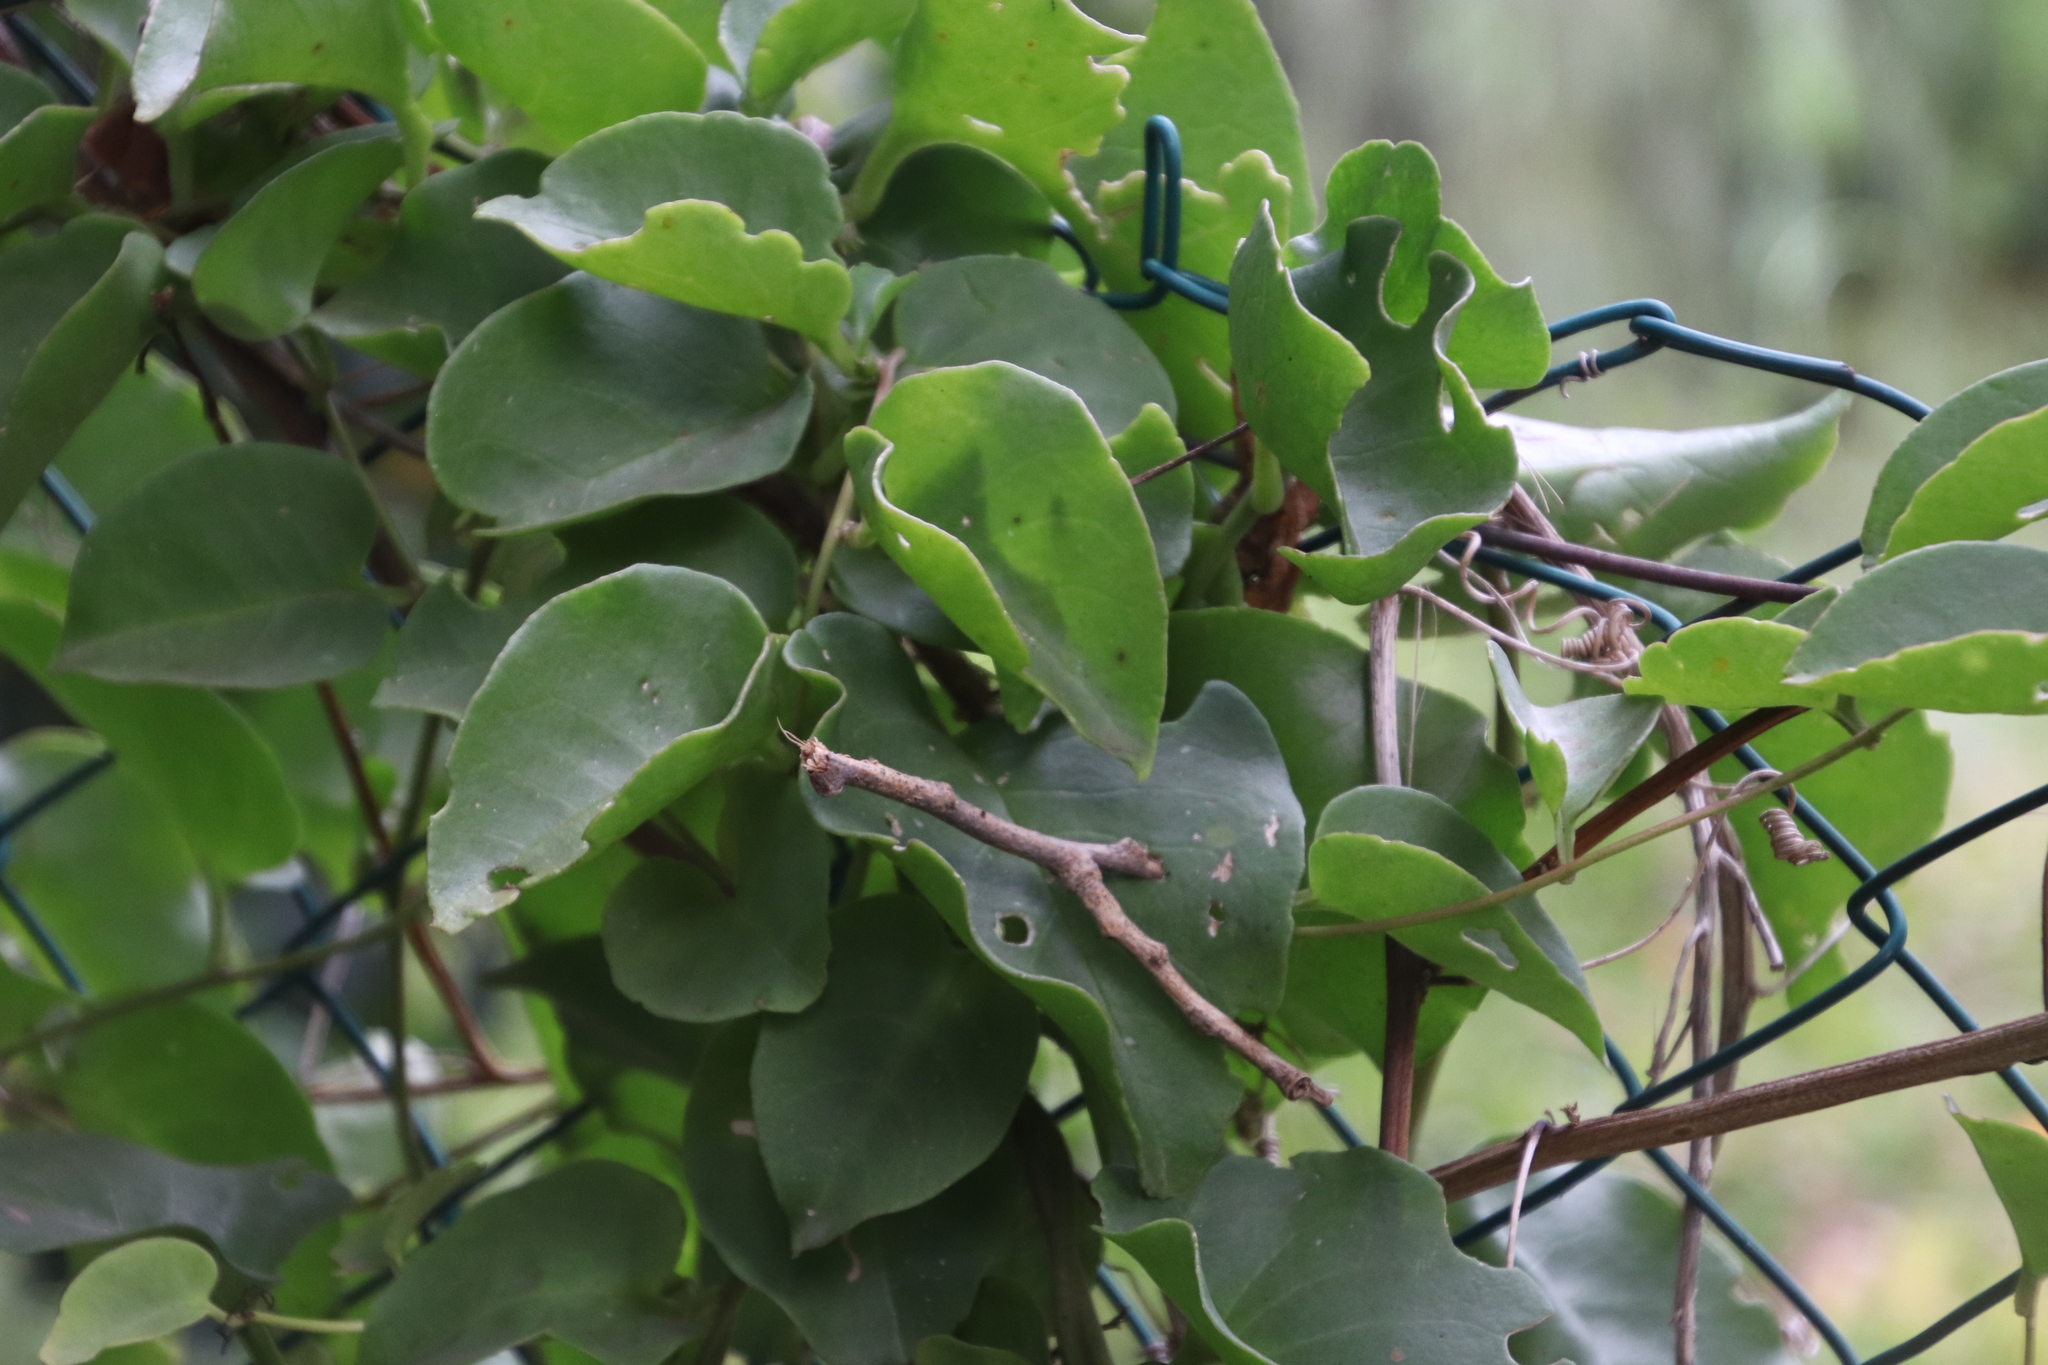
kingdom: Plantae
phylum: Tracheophyta
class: Magnoliopsida
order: Caryophyllales
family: Basellaceae
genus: Anredera
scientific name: Anredera cordifolia
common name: Heartleaf madeiravine
